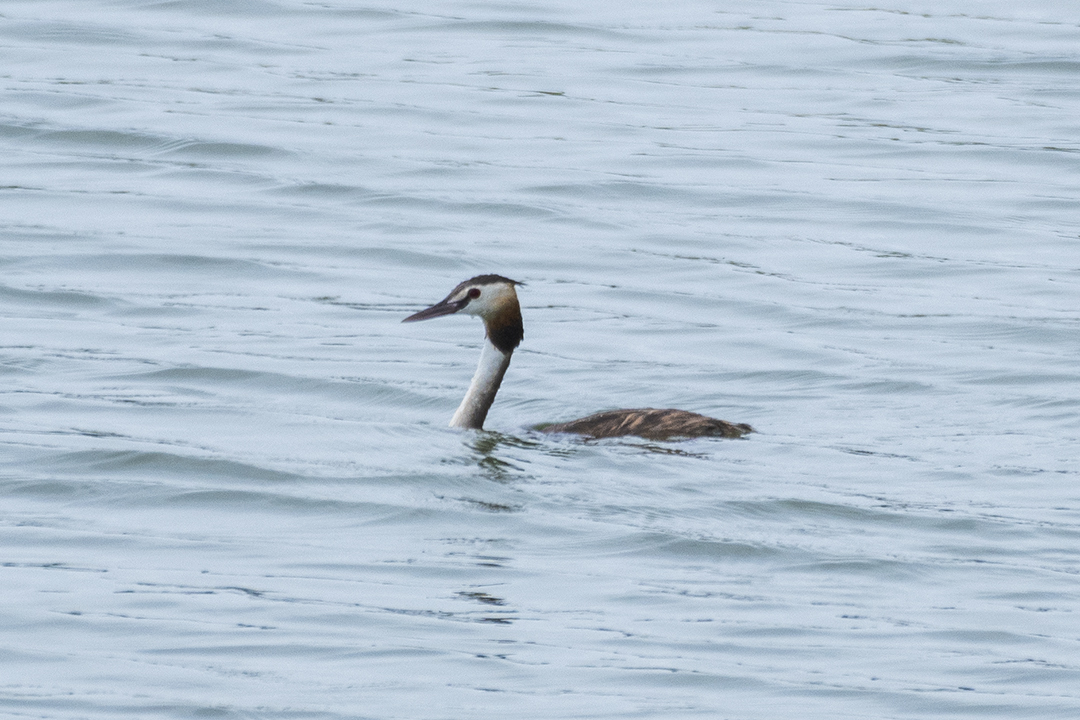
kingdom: Animalia
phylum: Chordata
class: Aves
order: Podicipediformes
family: Podicipedidae
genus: Podiceps
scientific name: Podiceps cristatus
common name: Great crested grebe
